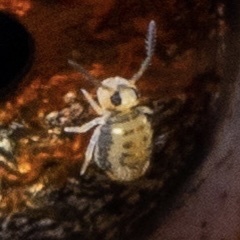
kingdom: Animalia
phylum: Arthropoda
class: Collembola
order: Symphypleona
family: Katiannidae
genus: Sminthurinus
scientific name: Sminthurinus henshawi
